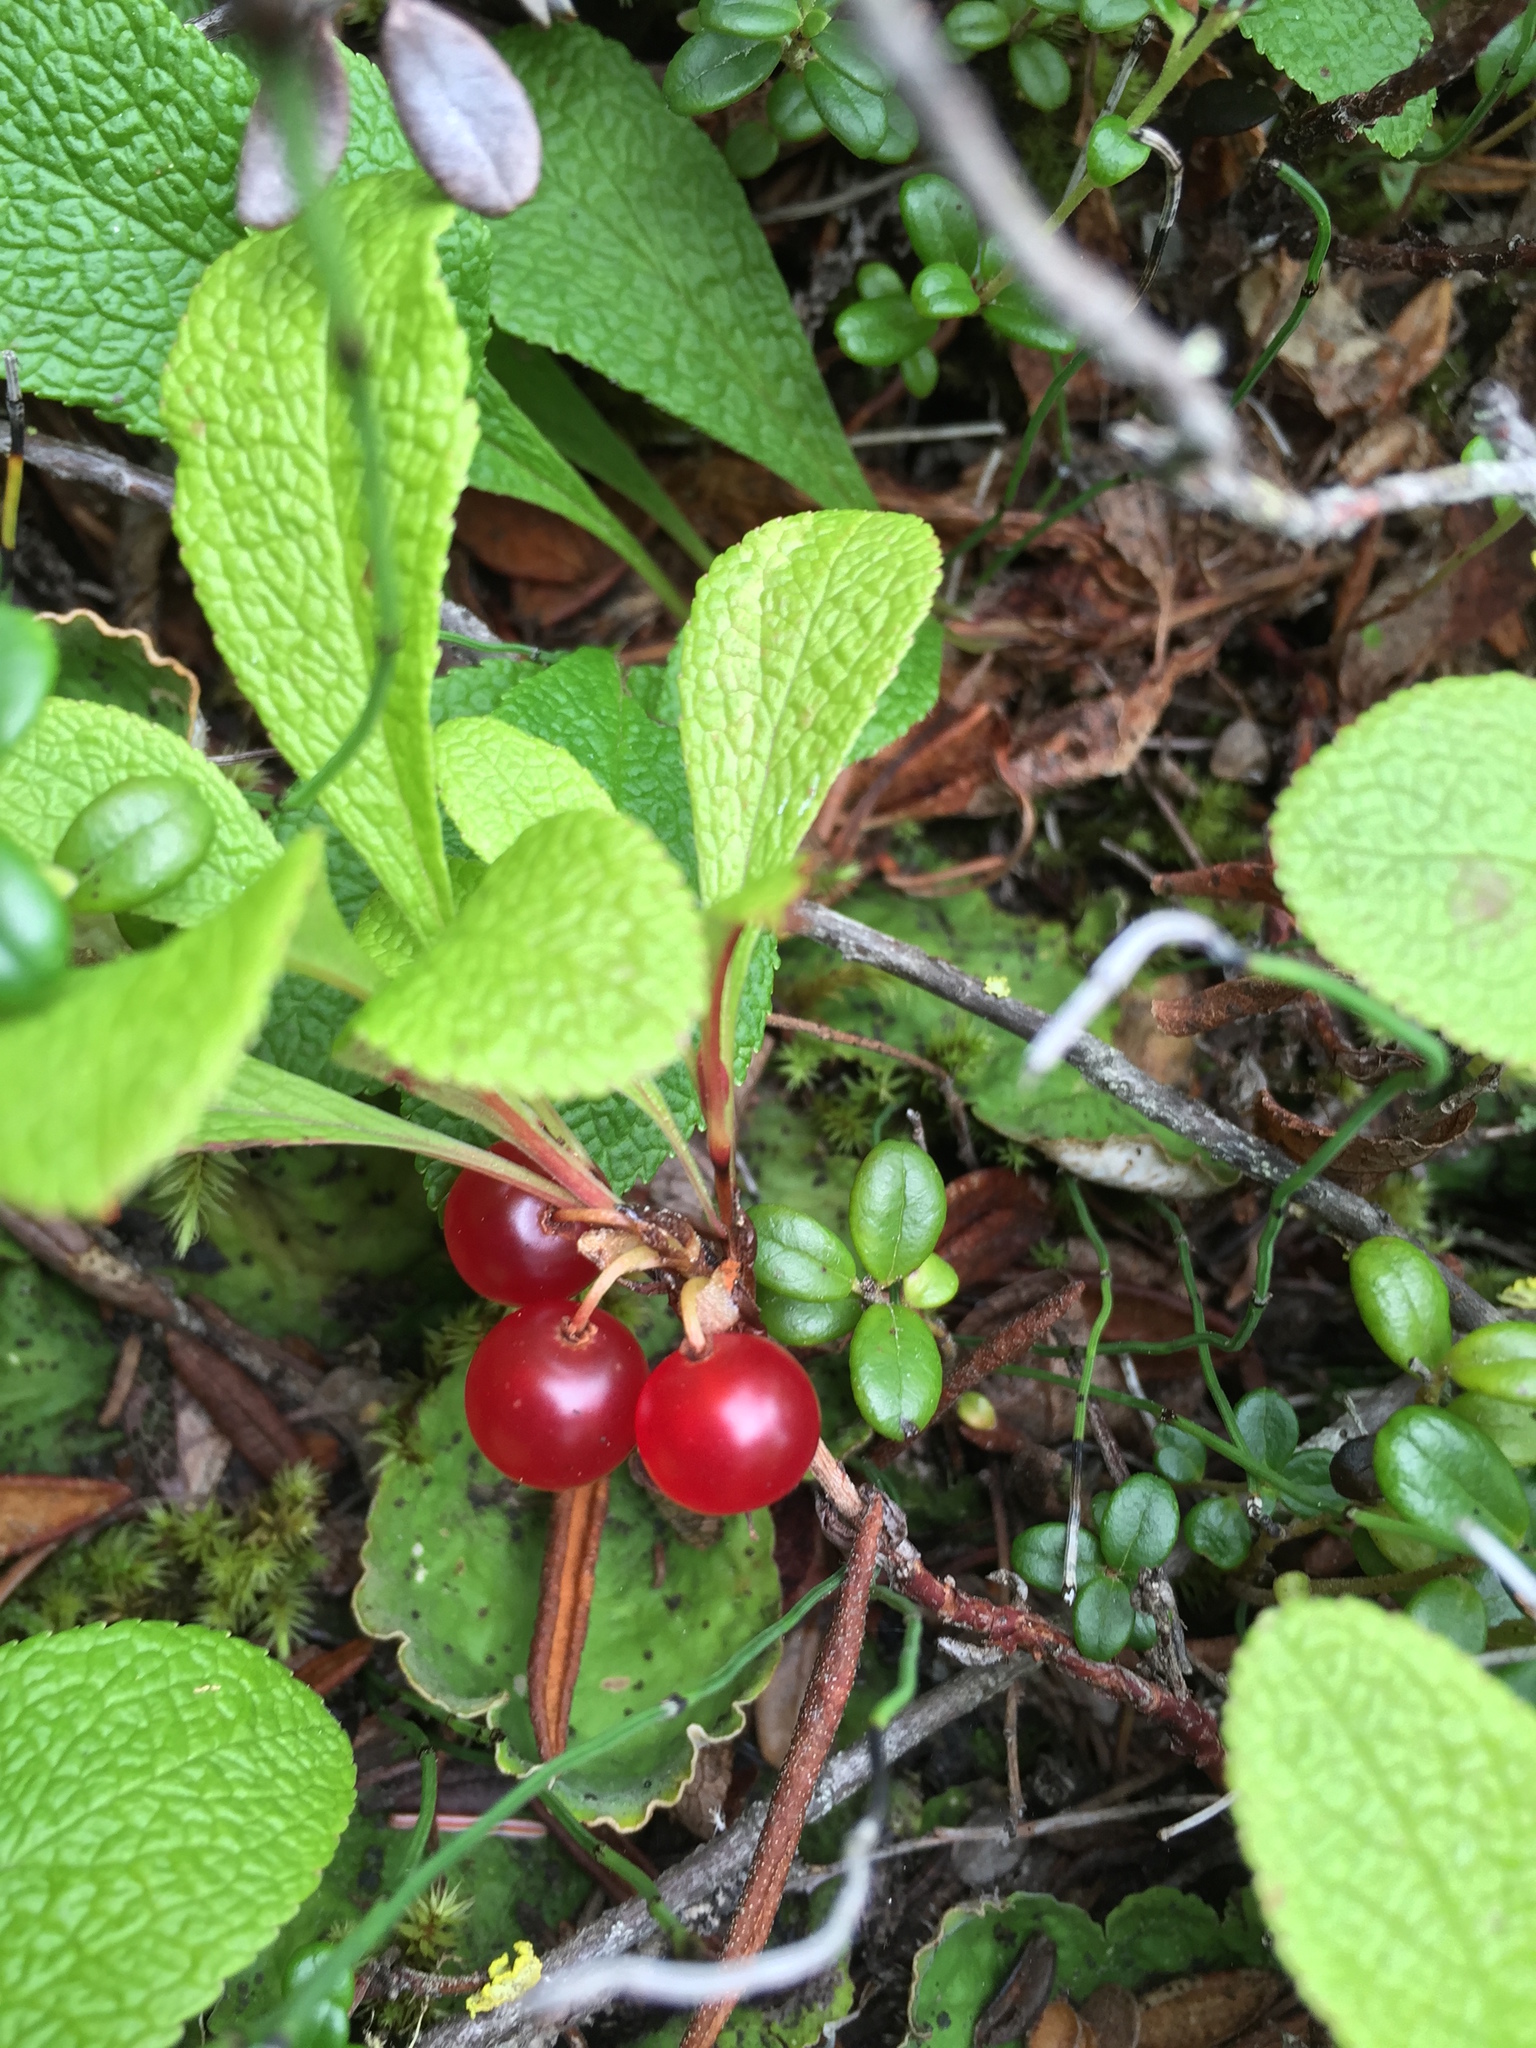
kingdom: Plantae
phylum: Tracheophyta
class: Magnoliopsida
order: Ericales
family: Ericaceae
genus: Arctostaphylos
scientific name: Arctostaphylos rubra
